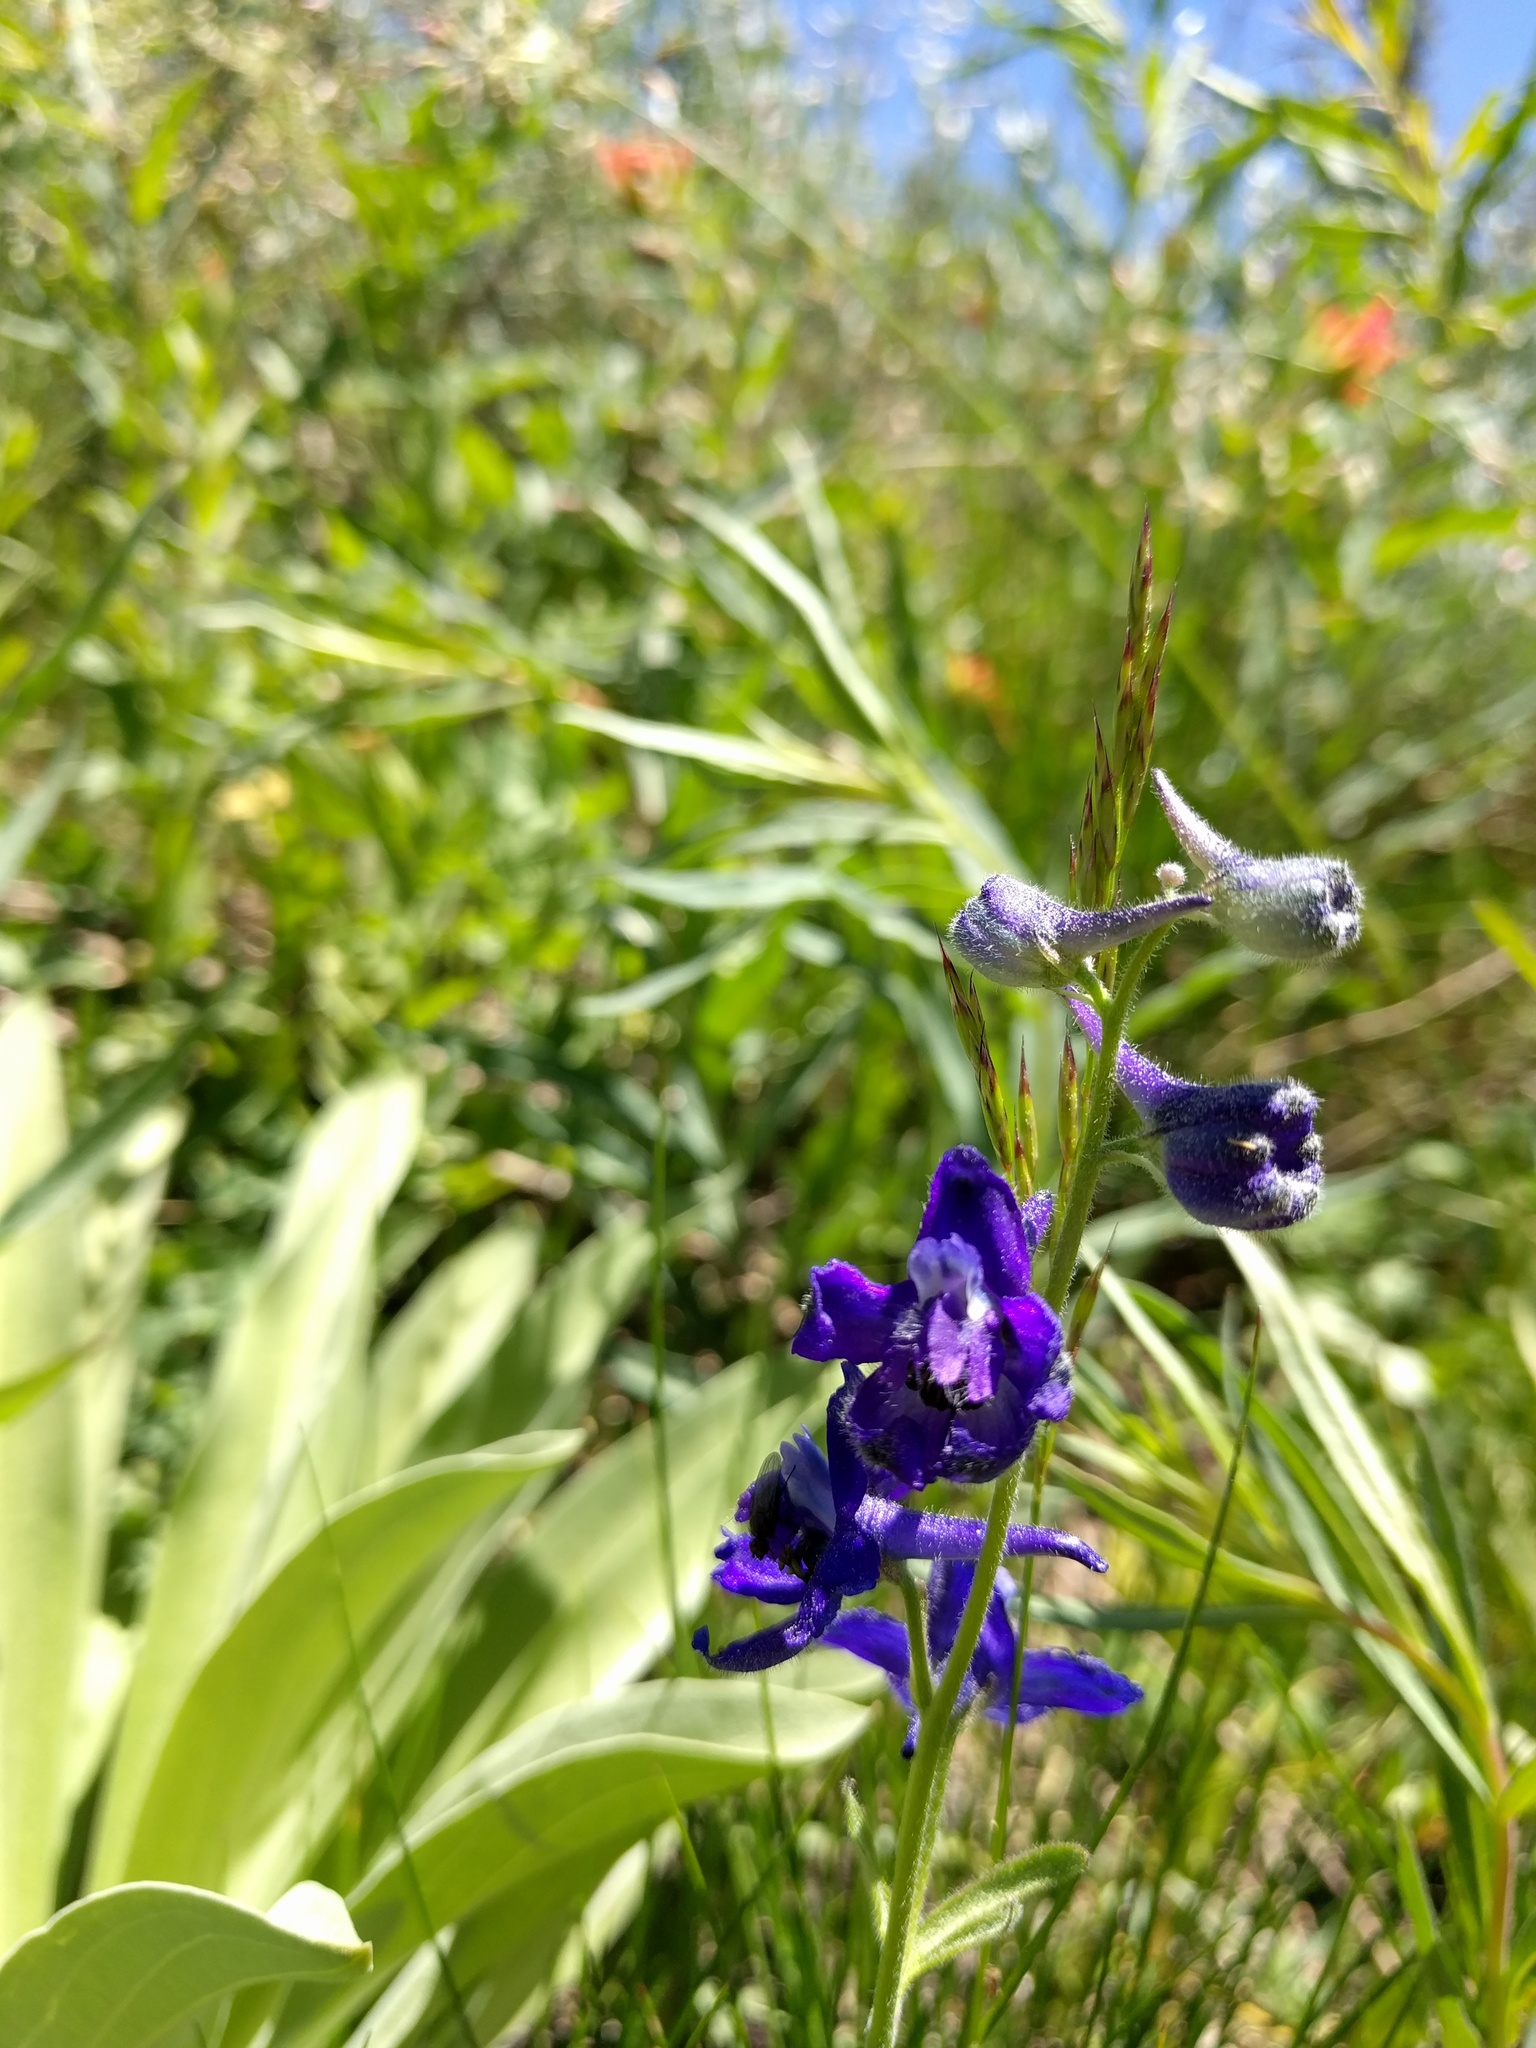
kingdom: Plantae
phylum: Tracheophyta
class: Magnoliopsida
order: Ranunculales
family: Ranunculaceae
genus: Delphinium
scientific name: Delphinium glaucum
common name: Brown's larkspur
